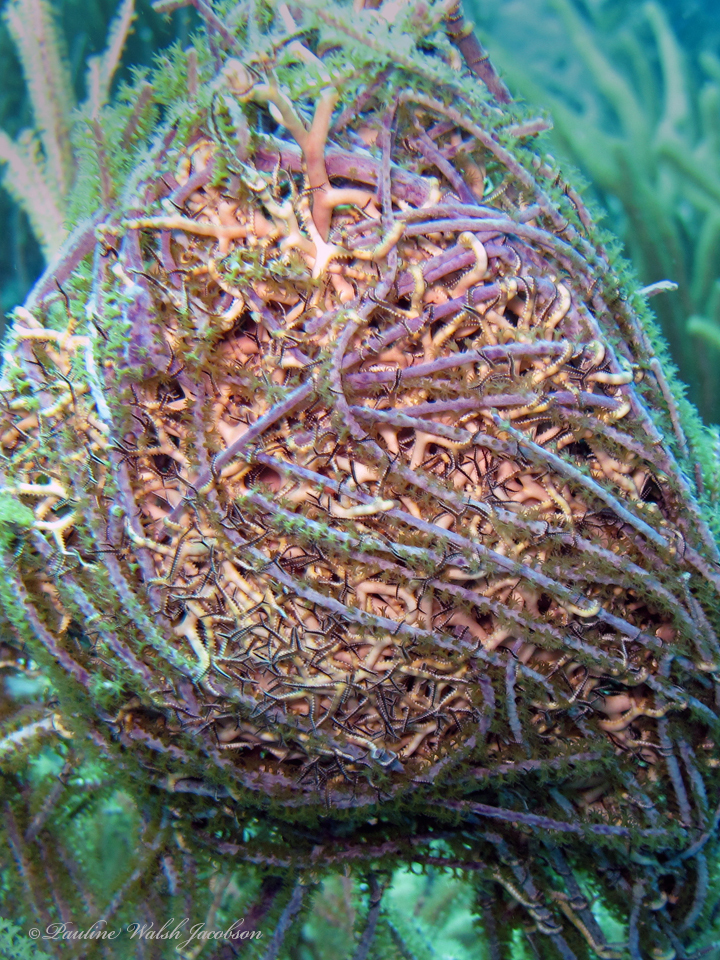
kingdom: Animalia
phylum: Echinodermata
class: Ophiuroidea
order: Euryalida
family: Gorgonocephalidae
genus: Astrophyton
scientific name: Astrophyton muricatum
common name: Basket starfish
